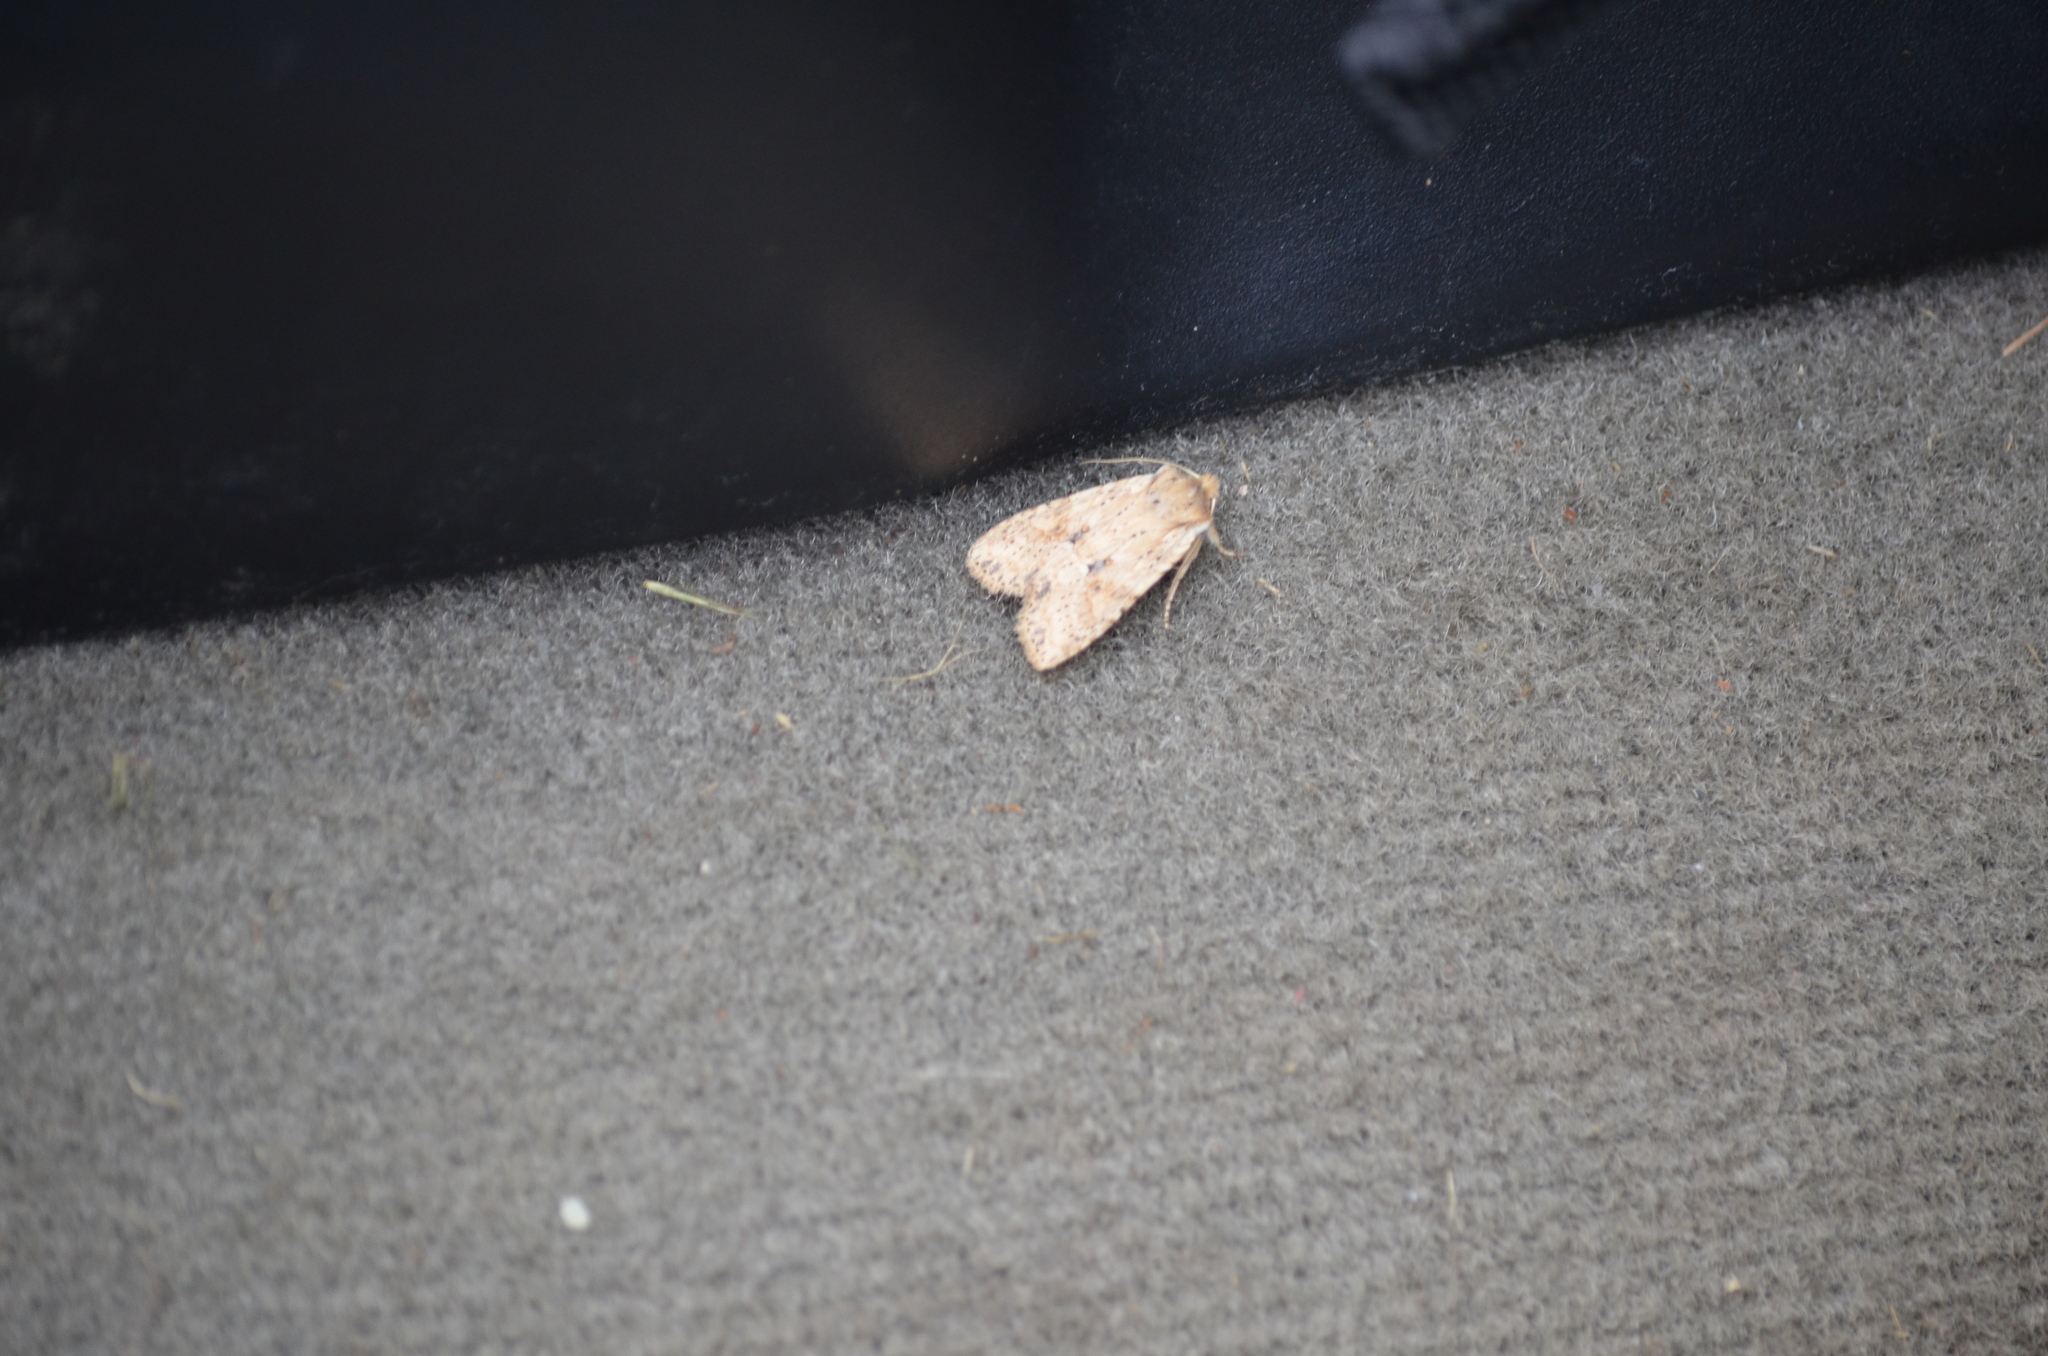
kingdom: Animalia
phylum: Arthropoda
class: Insecta
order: Lepidoptera
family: Noctuidae
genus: Lithophane
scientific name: Lithophane innominata
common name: Nameless pinion moth
